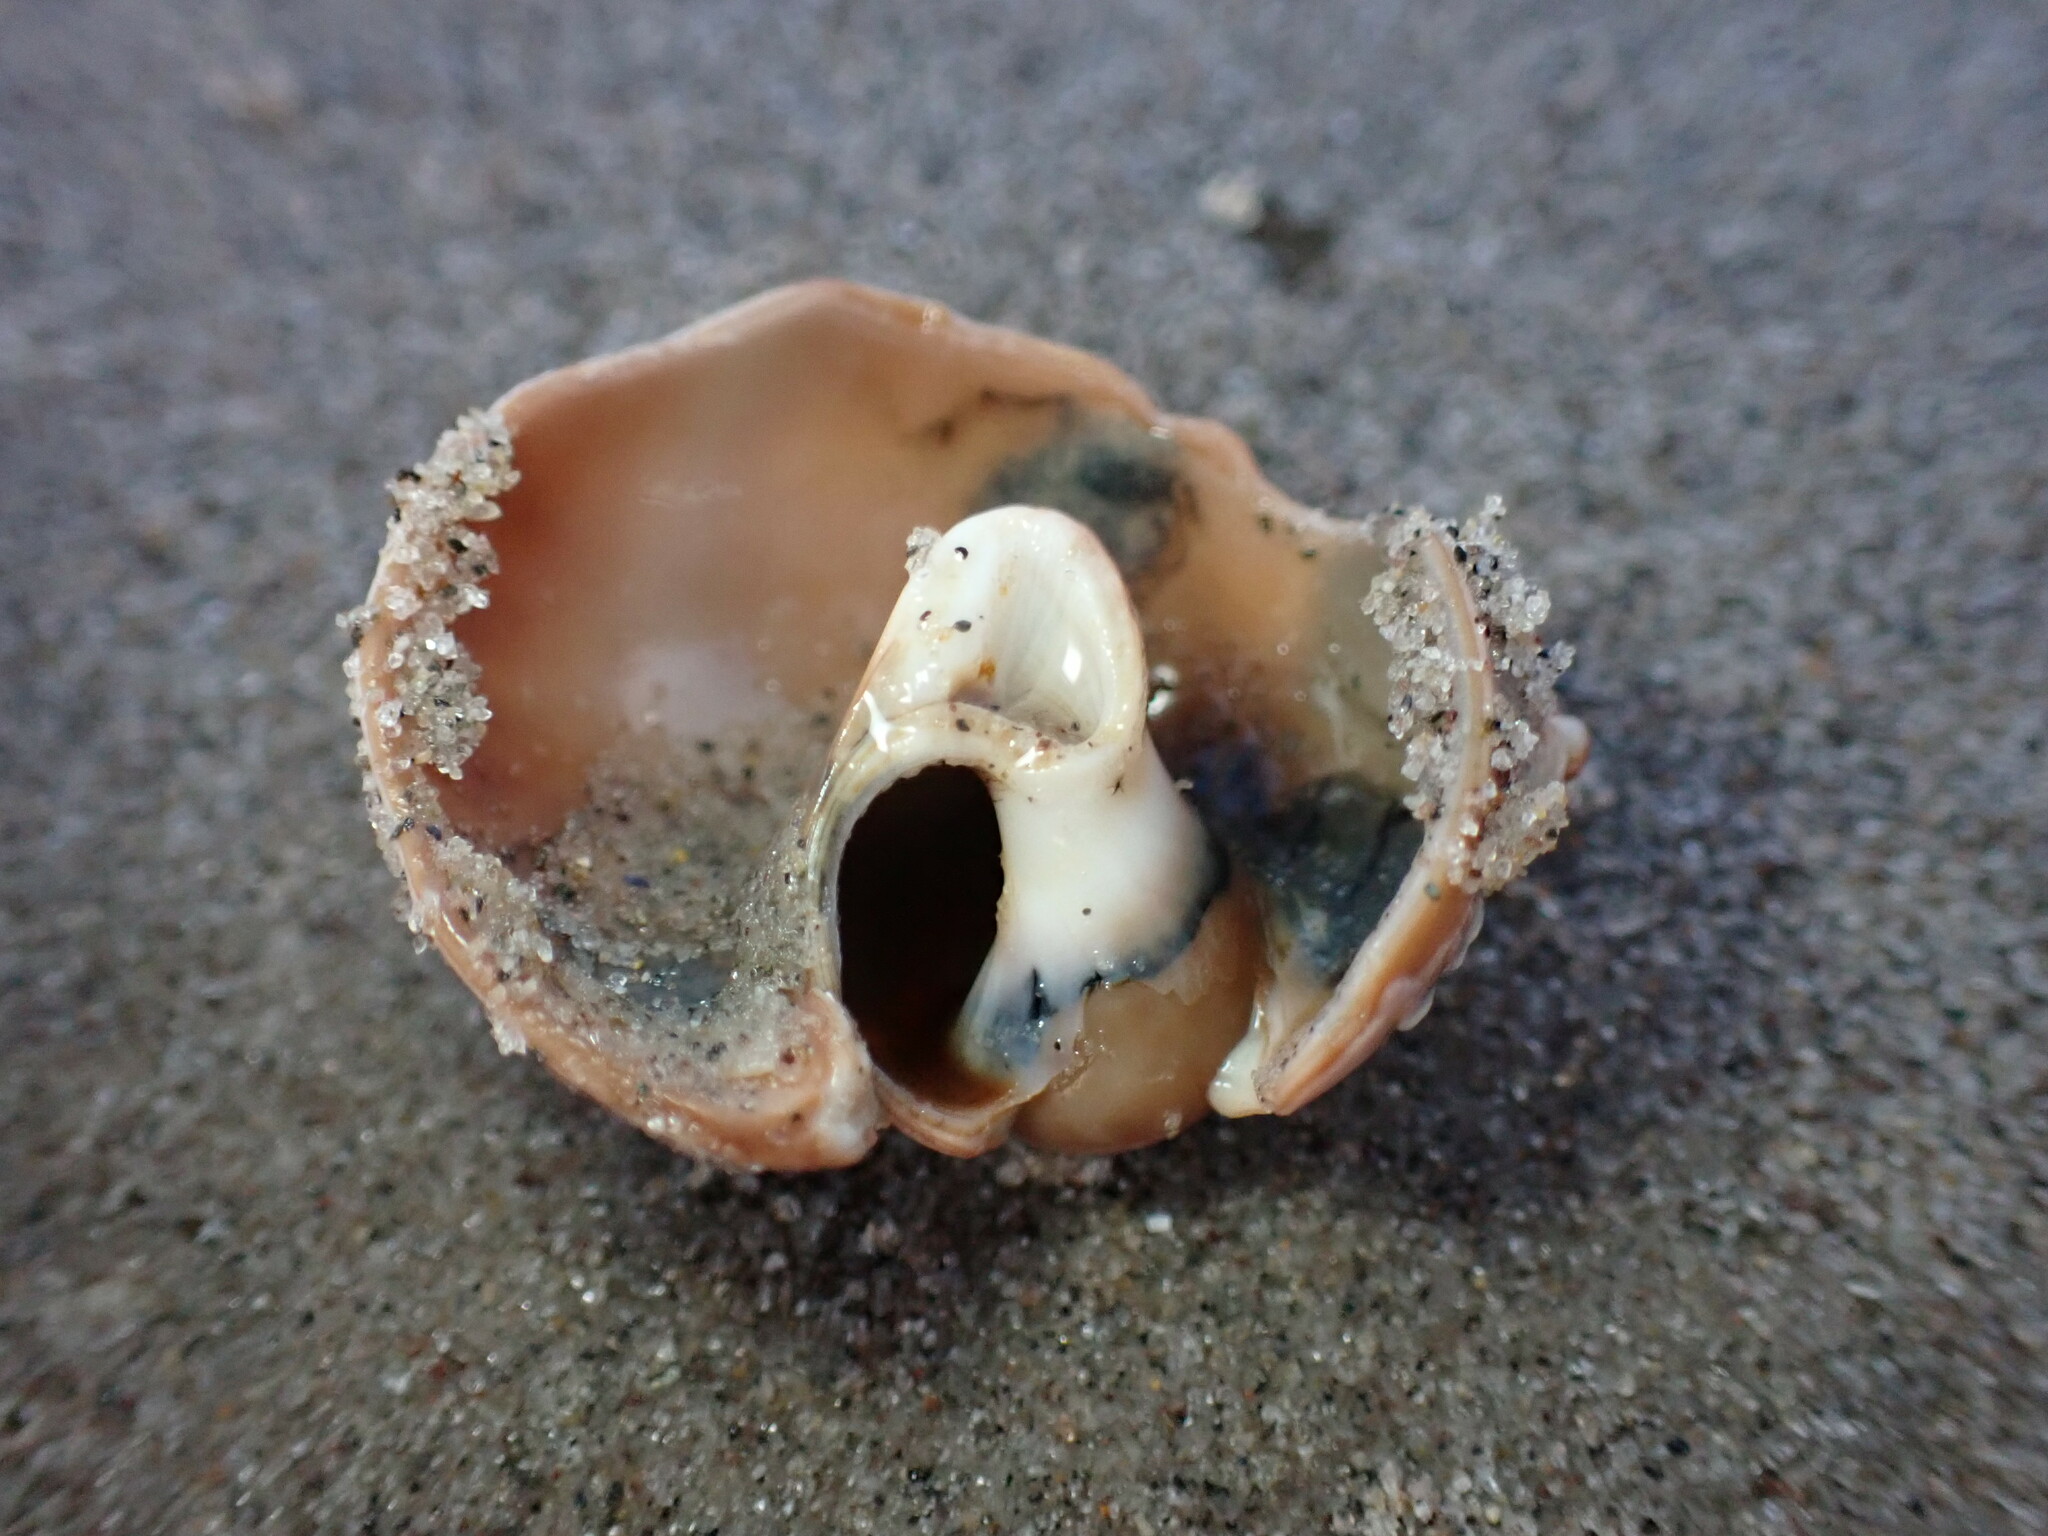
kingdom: Animalia
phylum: Mollusca
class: Gastropoda
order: Littorinimorpha
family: Naticidae
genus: Euspira
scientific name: Euspira heros
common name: Common northern moonsnail
